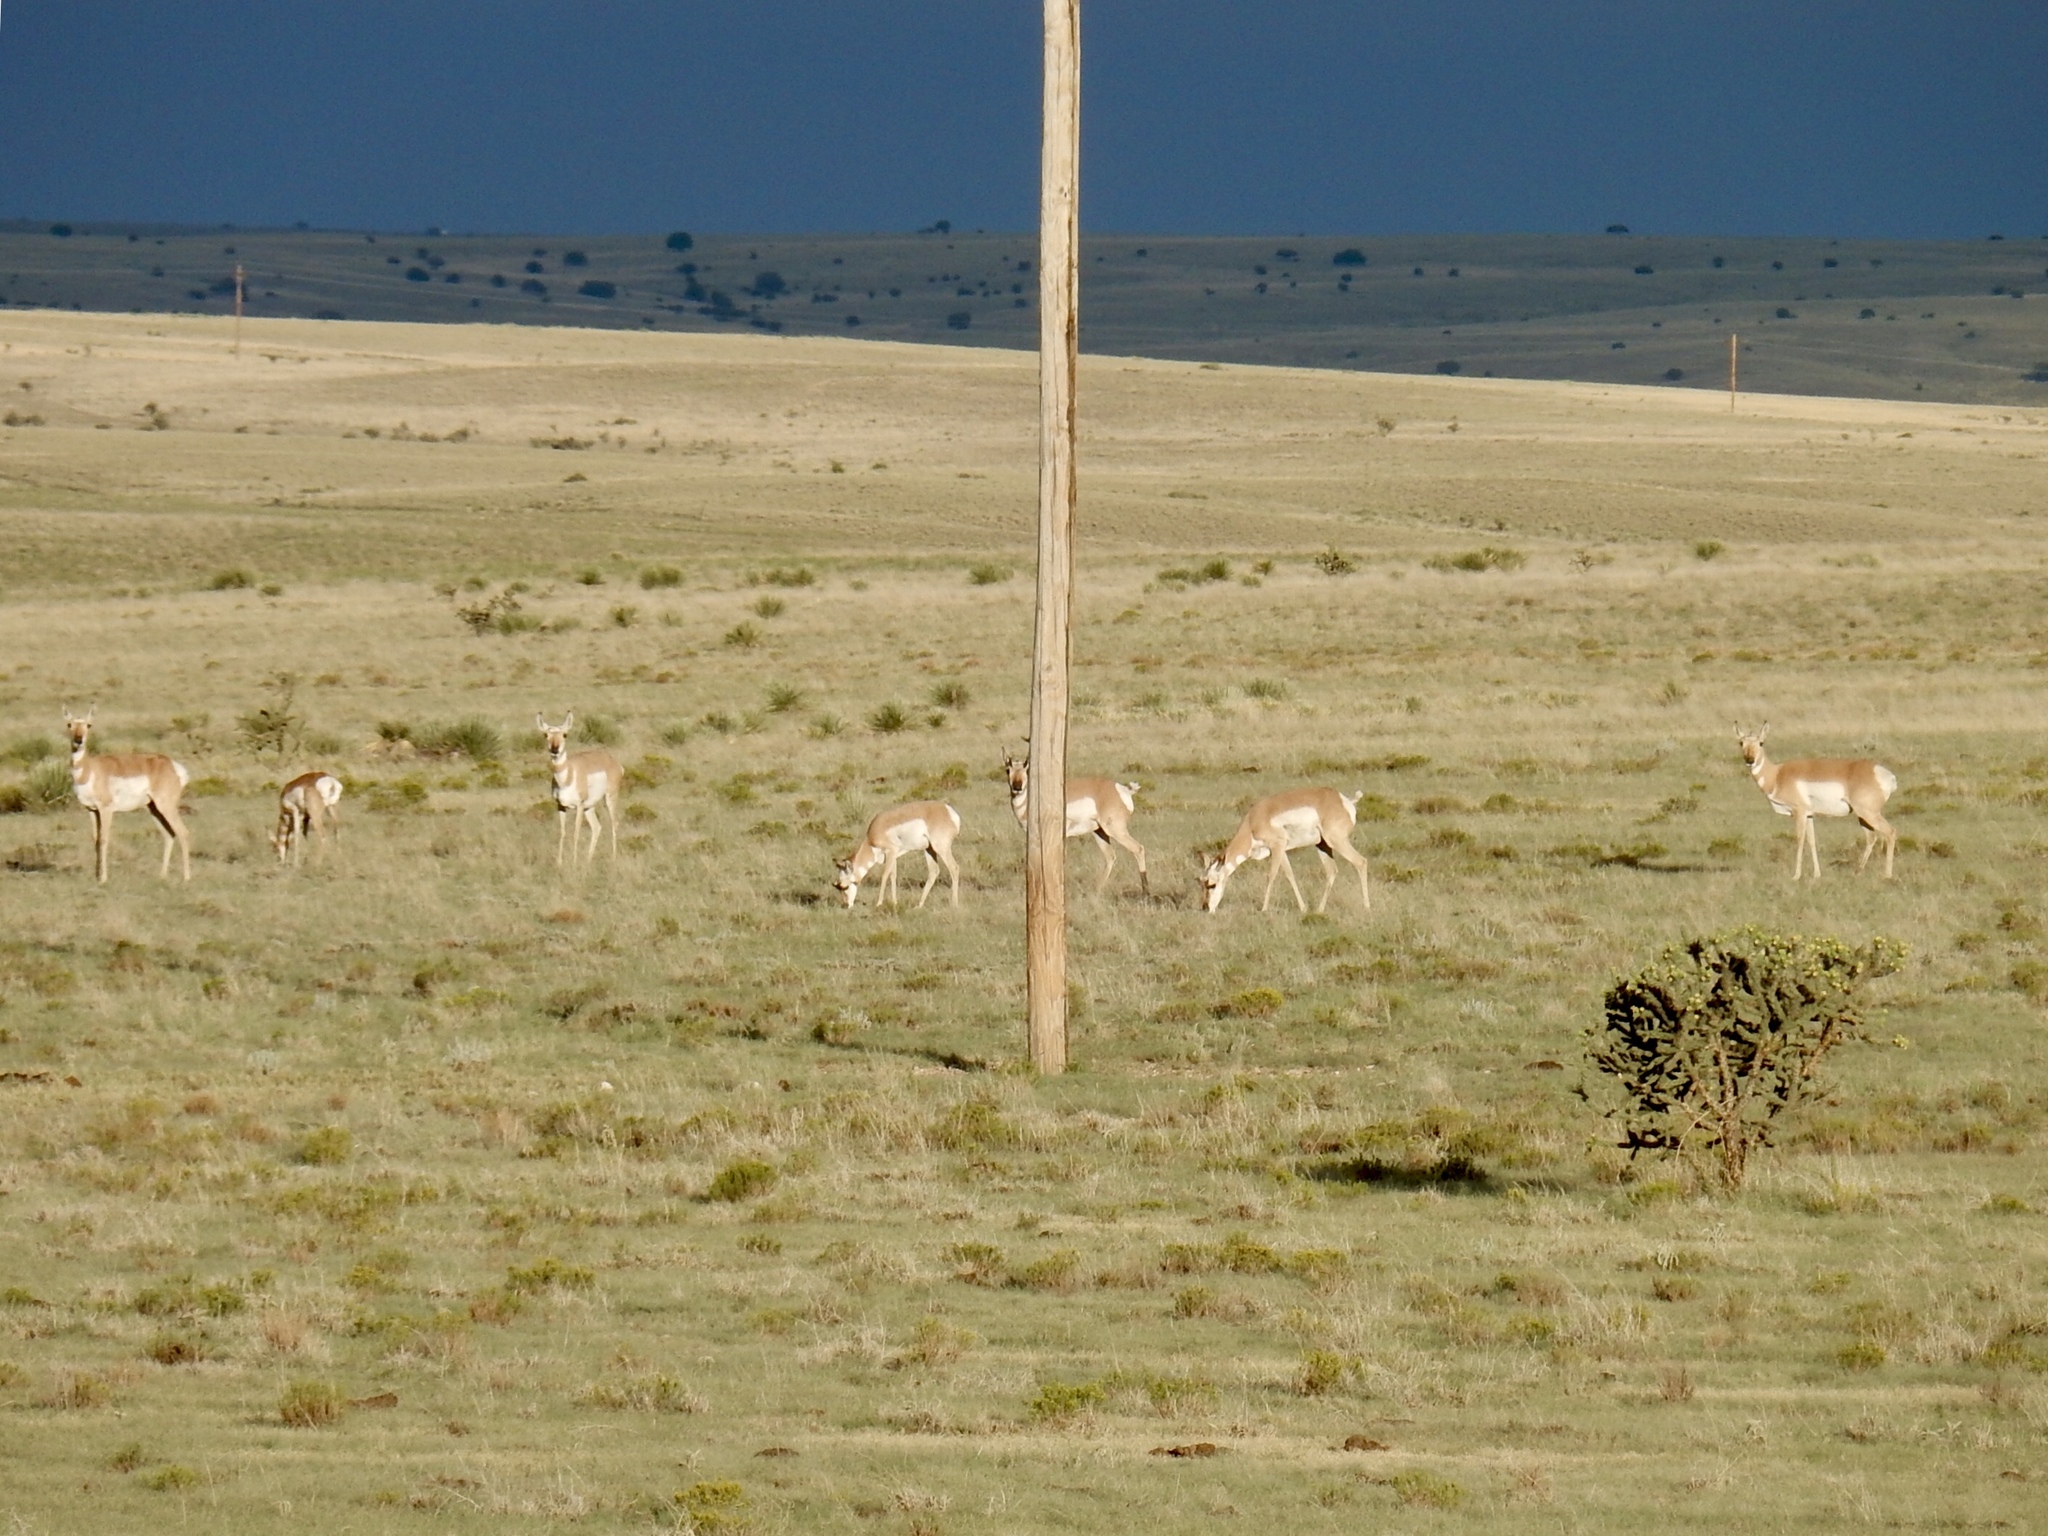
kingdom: Animalia
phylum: Chordata
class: Mammalia
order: Artiodactyla
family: Antilocapridae
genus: Antilocapra
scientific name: Antilocapra americana
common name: Pronghorn
